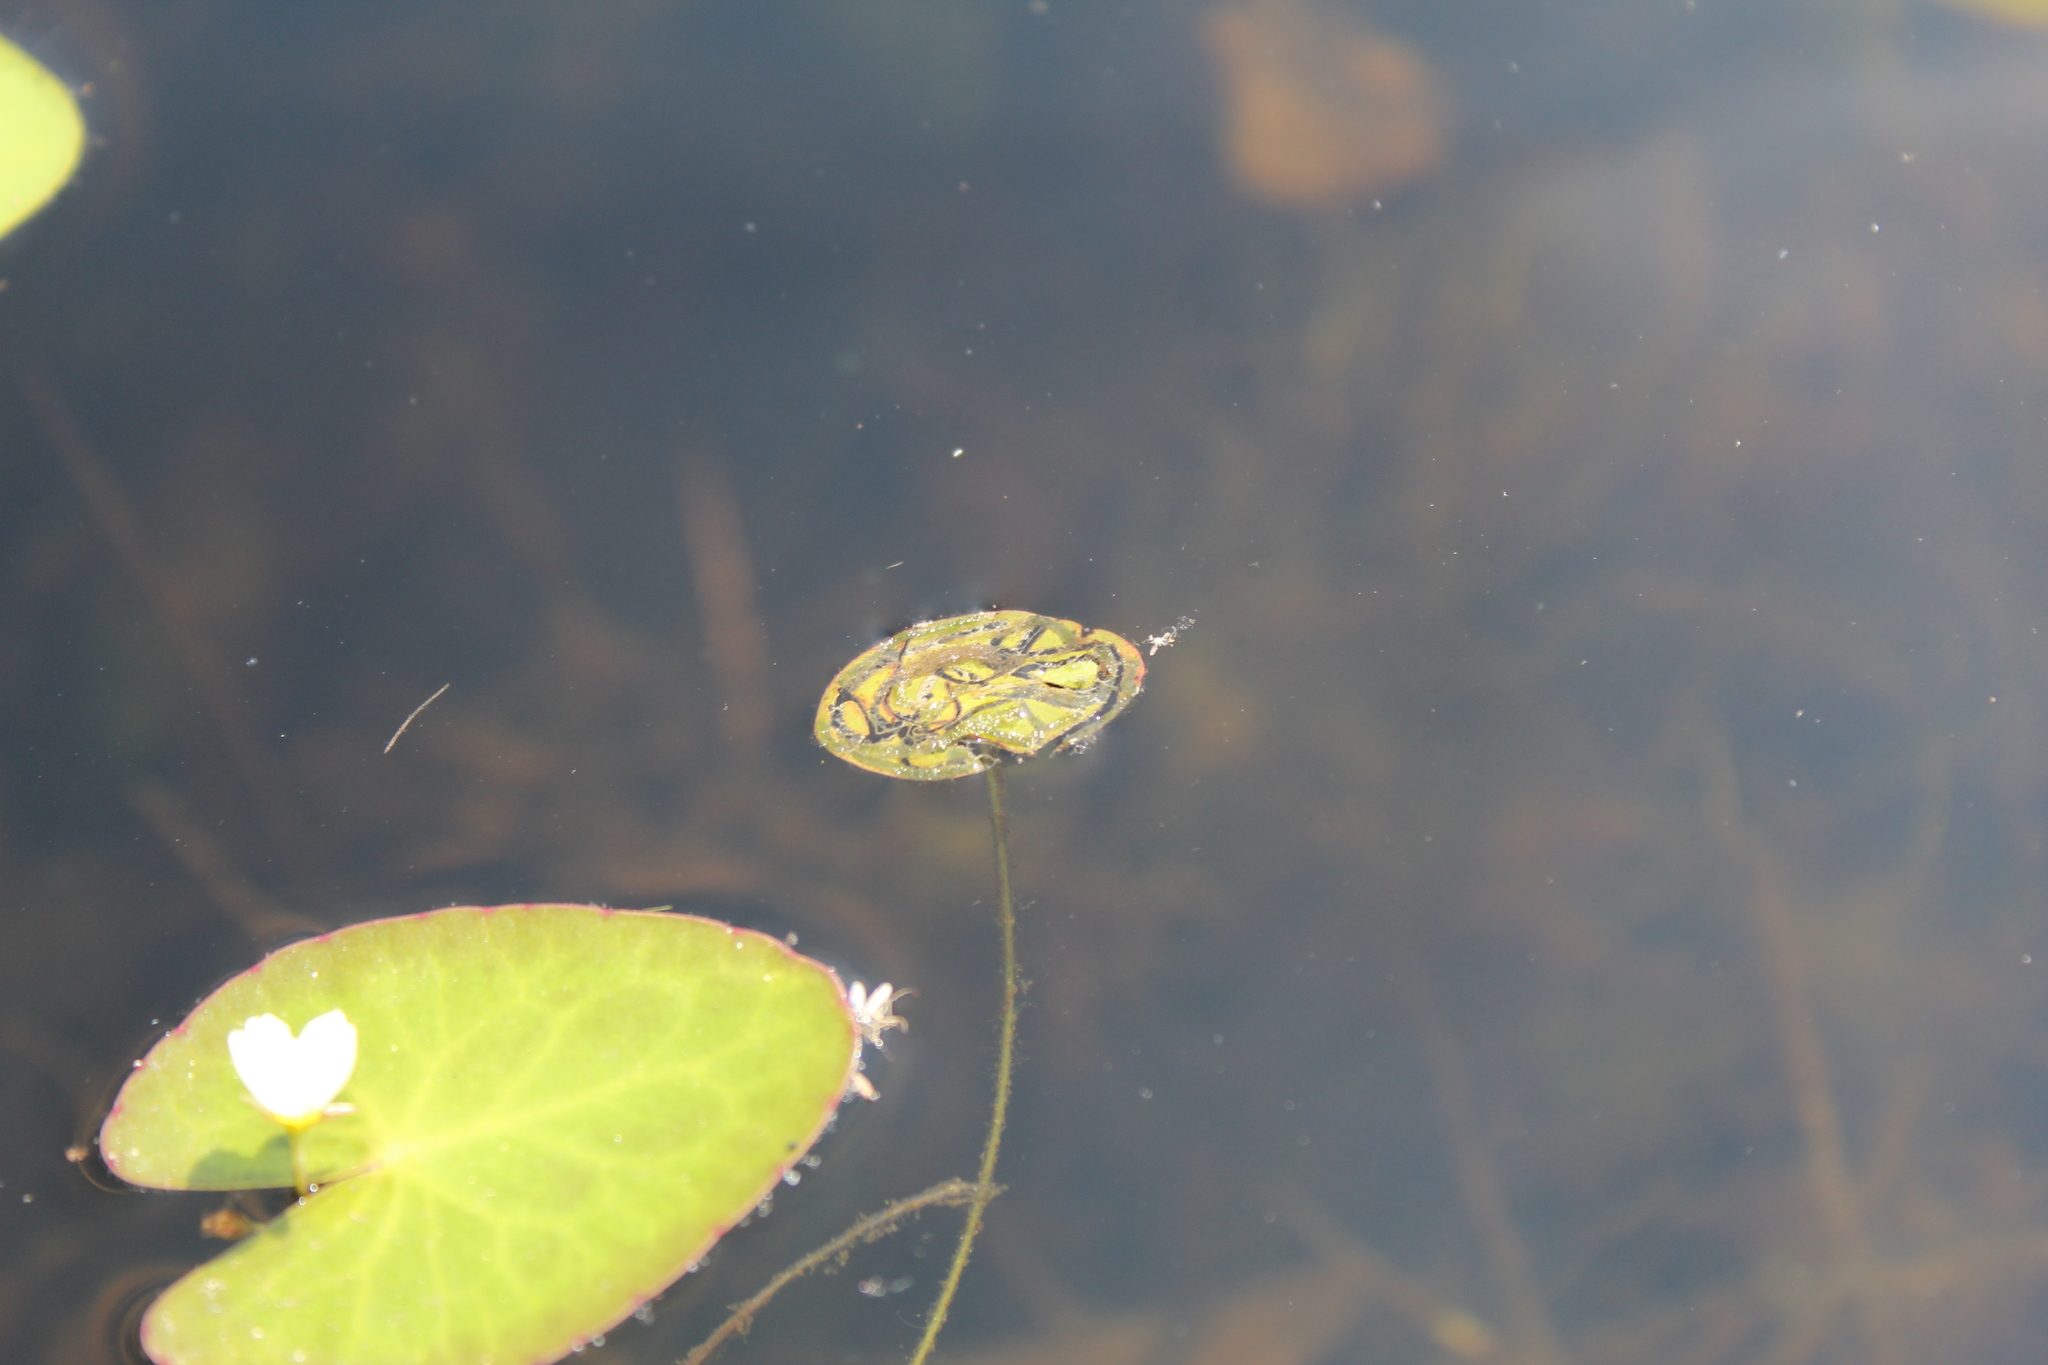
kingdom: Plantae
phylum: Tracheophyta
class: Magnoliopsida
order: Nymphaeales
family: Cabombaceae
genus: Brasenia
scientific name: Brasenia schreberi
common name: Water-shield
